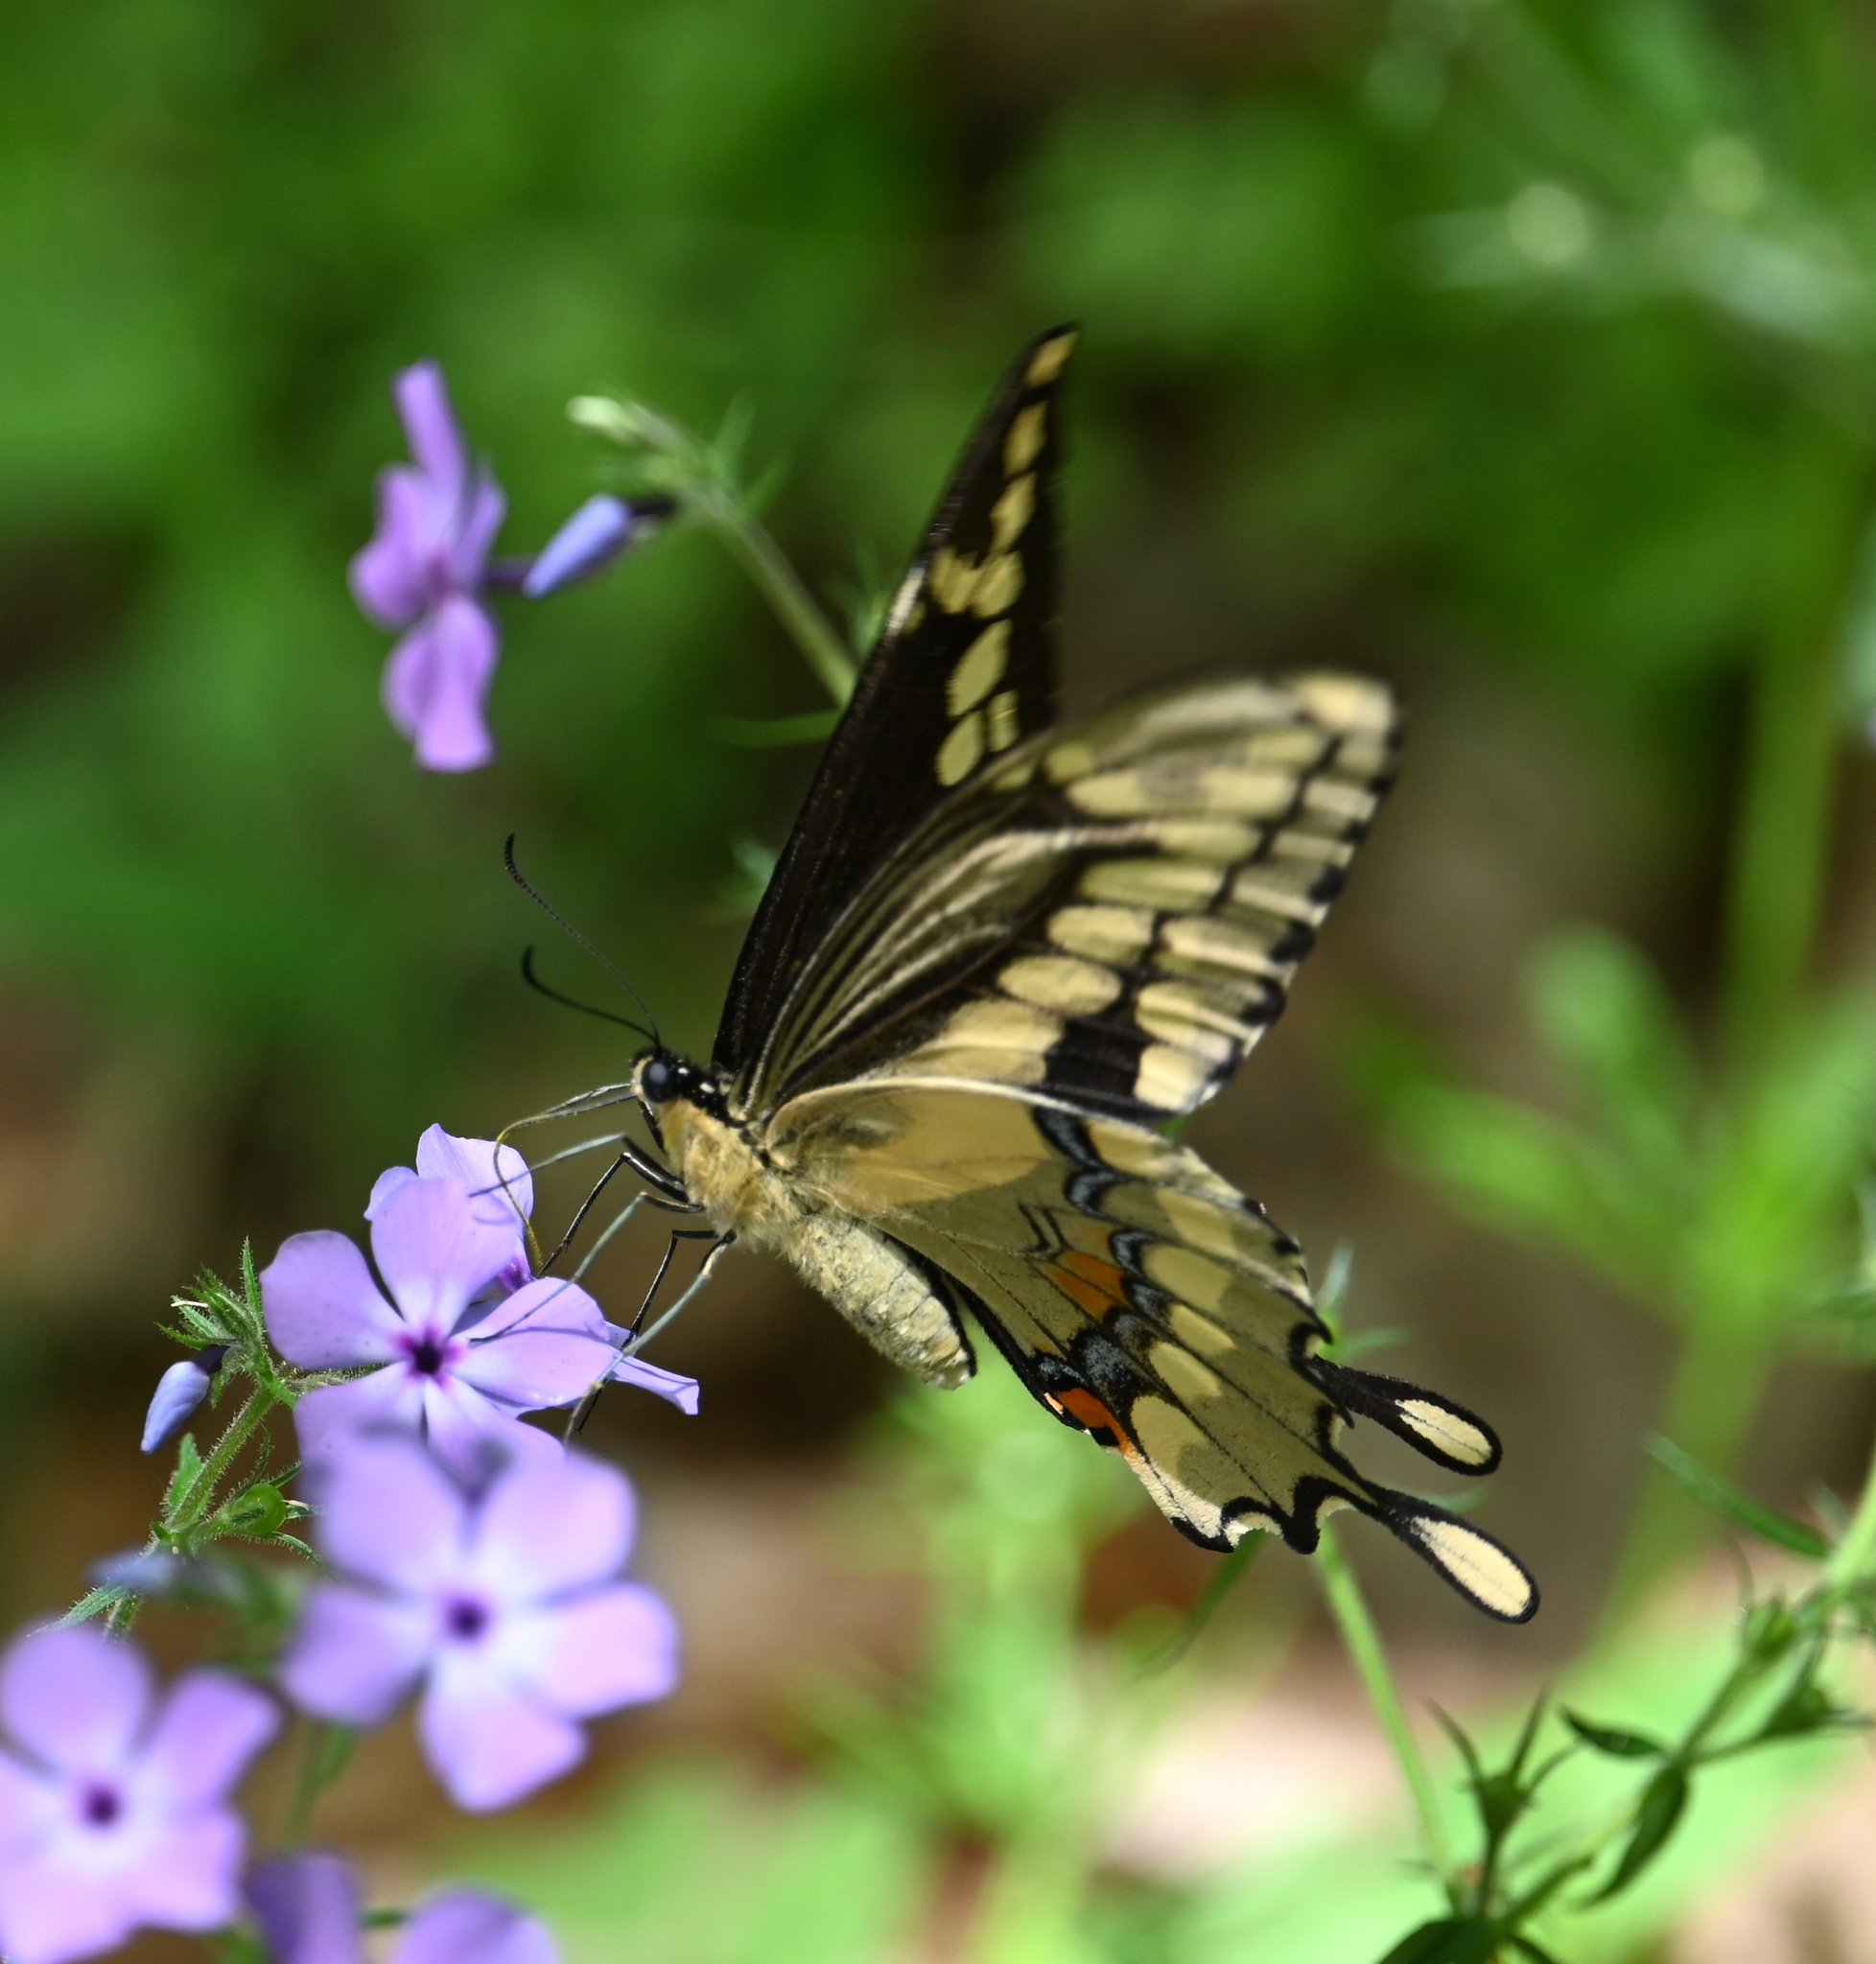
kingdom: Animalia
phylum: Arthropoda
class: Insecta
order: Lepidoptera
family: Papilionidae
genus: Papilio
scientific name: Papilio cresphontes
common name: Giant swallowtail
